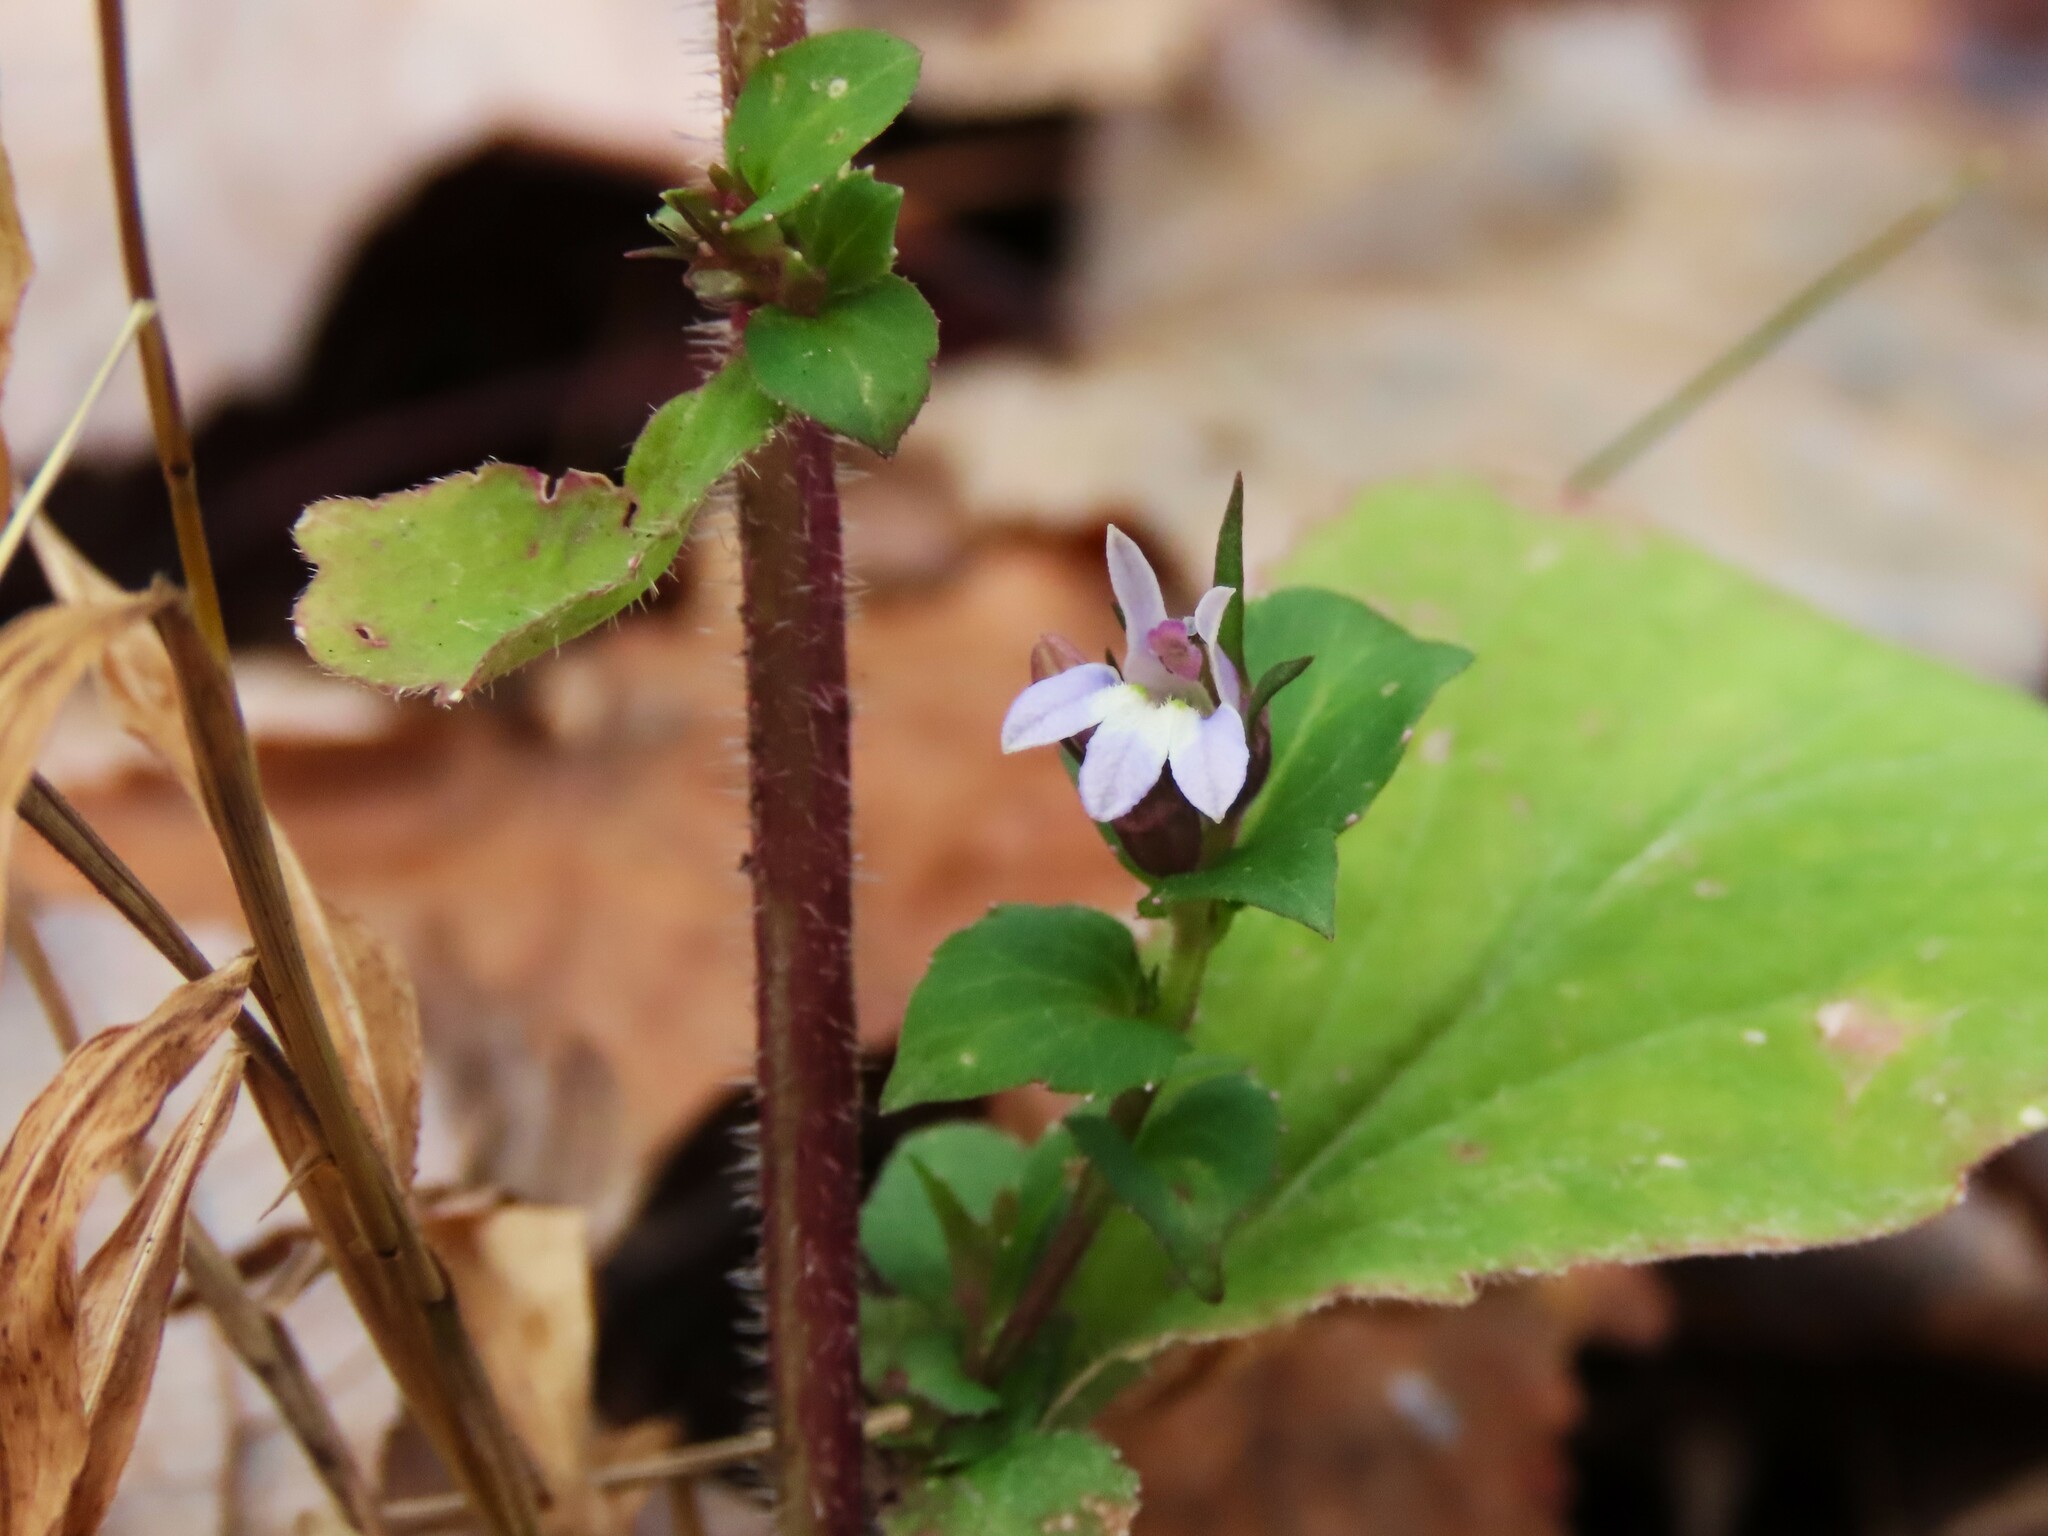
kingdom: Plantae
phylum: Tracheophyta
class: Magnoliopsida
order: Asterales
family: Campanulaceae
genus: Lobelia
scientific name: Lobelia inflata
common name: Indian tobacco
